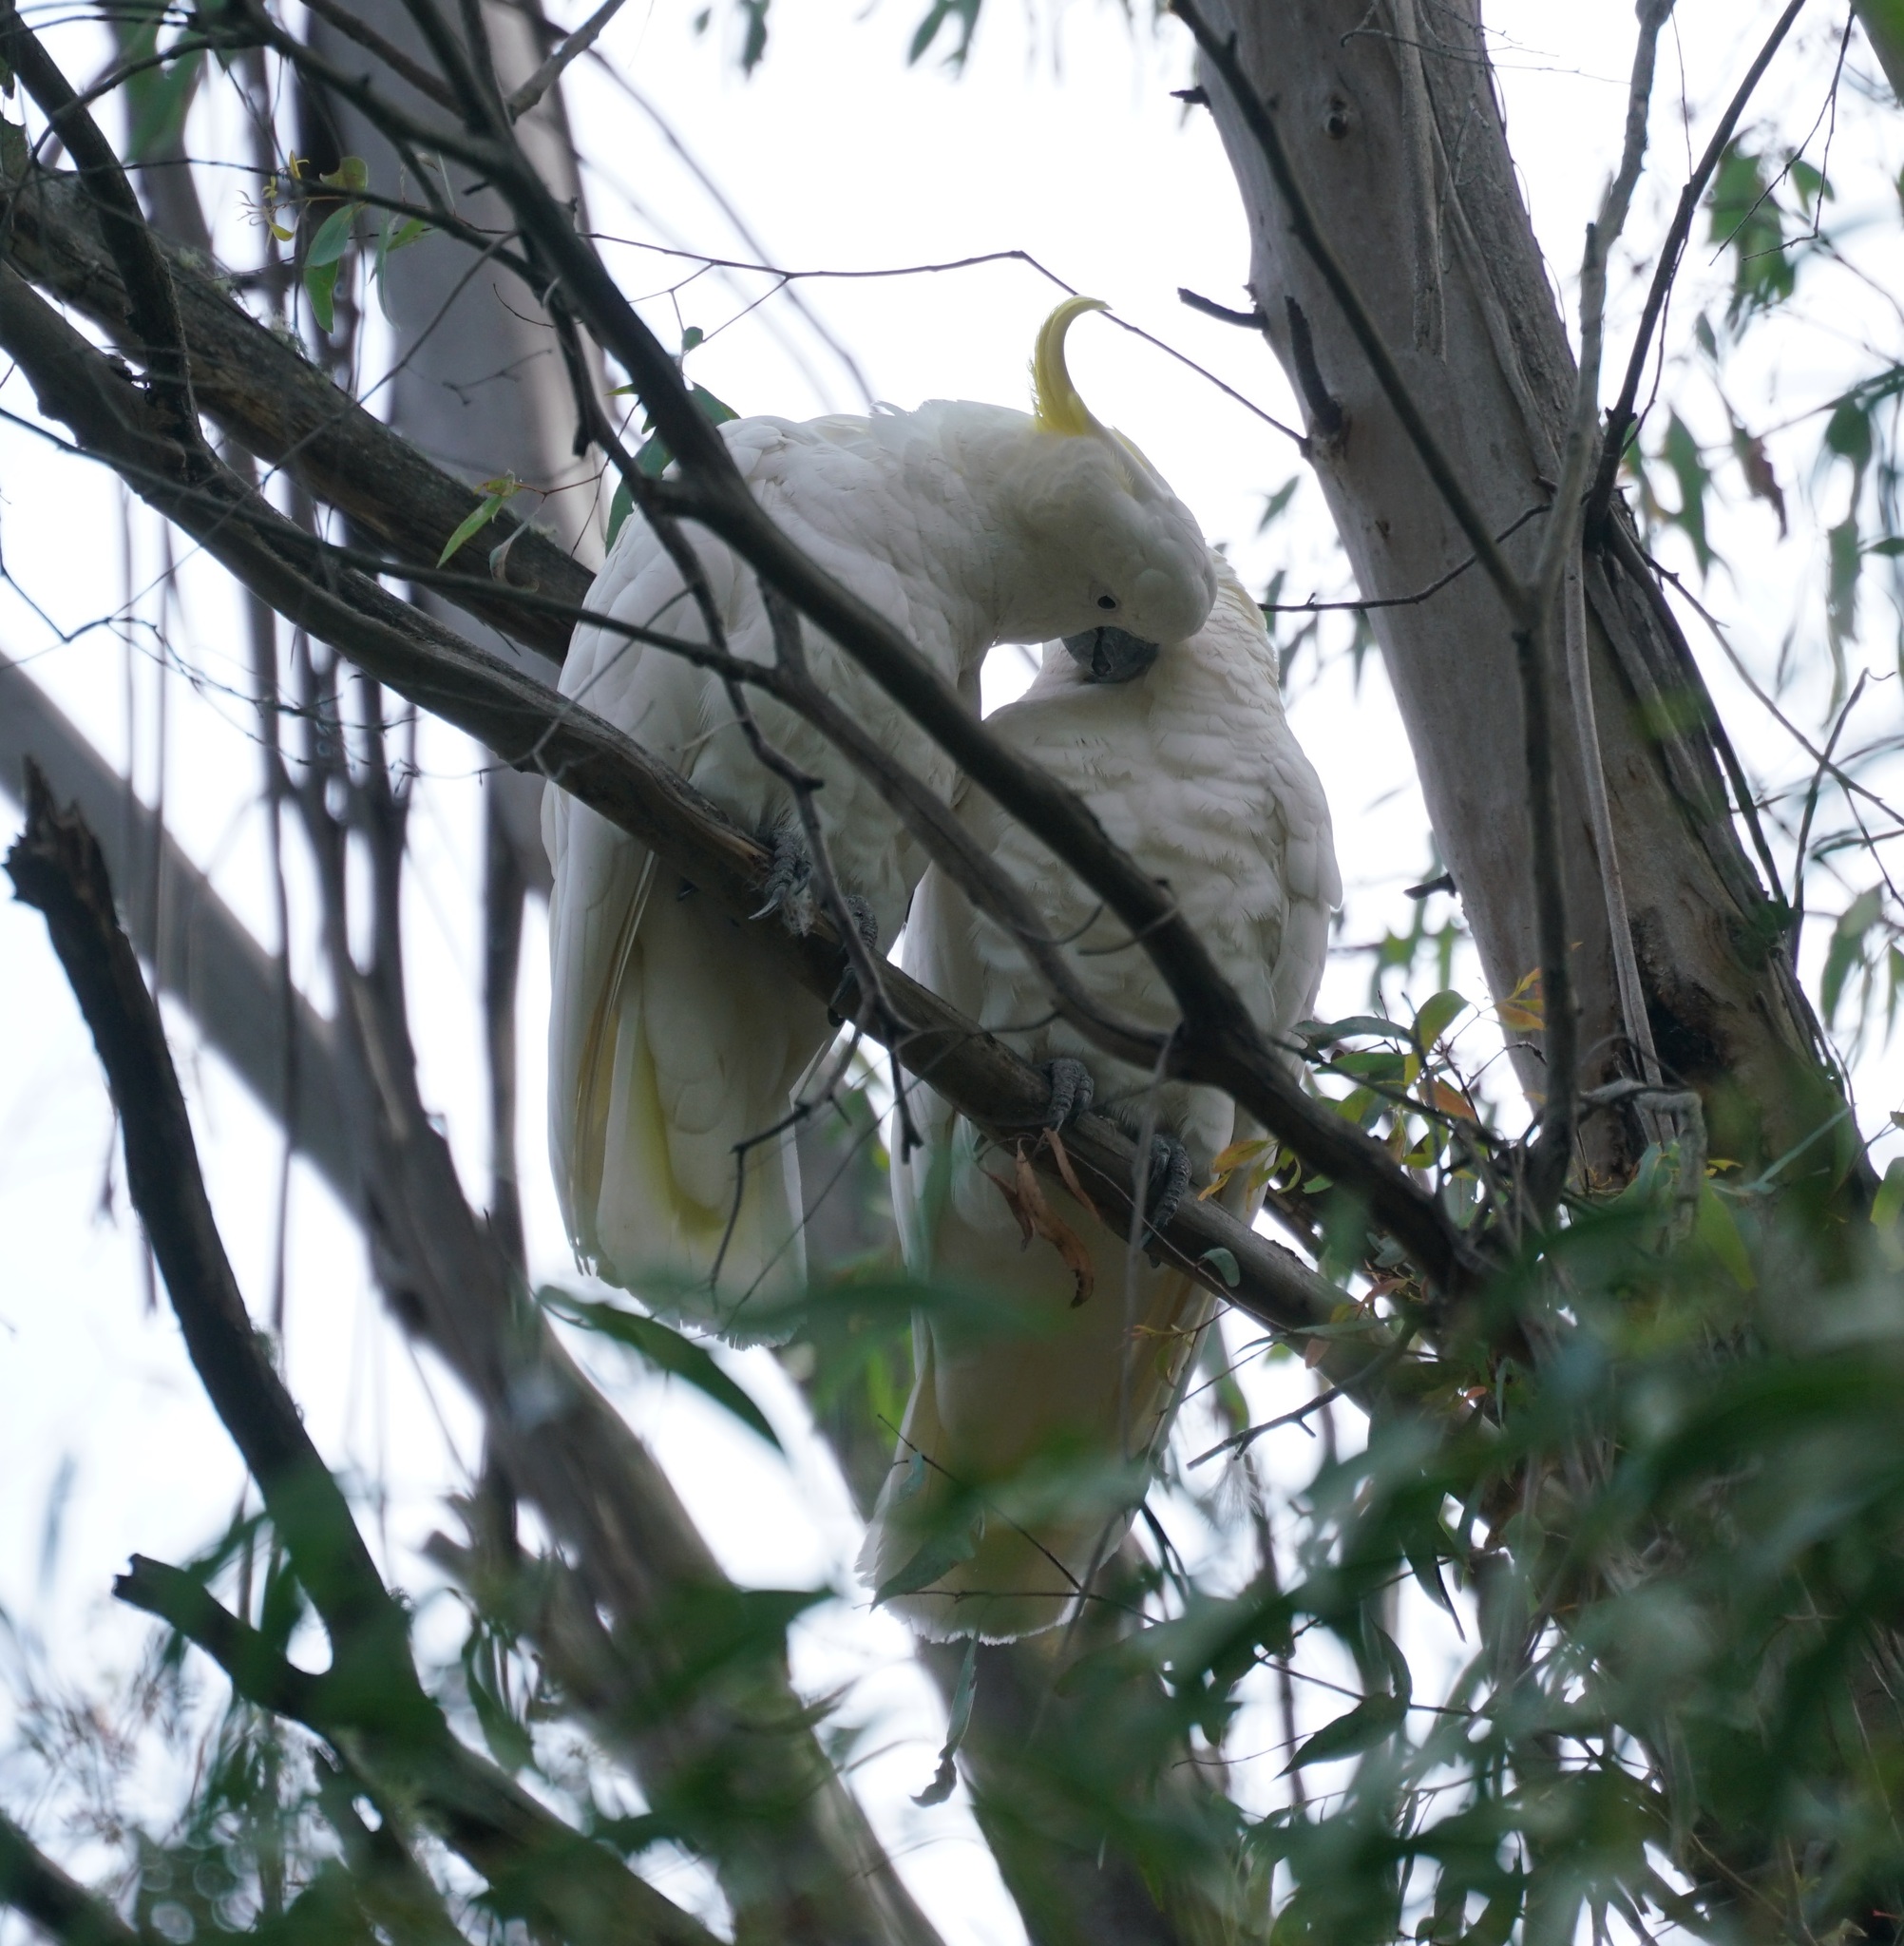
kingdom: Animalia
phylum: Chordata
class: Aves
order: Psittaciformes
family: Psittacidae
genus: Cacatua
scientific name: Cacatua galerita
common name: Sulphur-crested cockatoo
